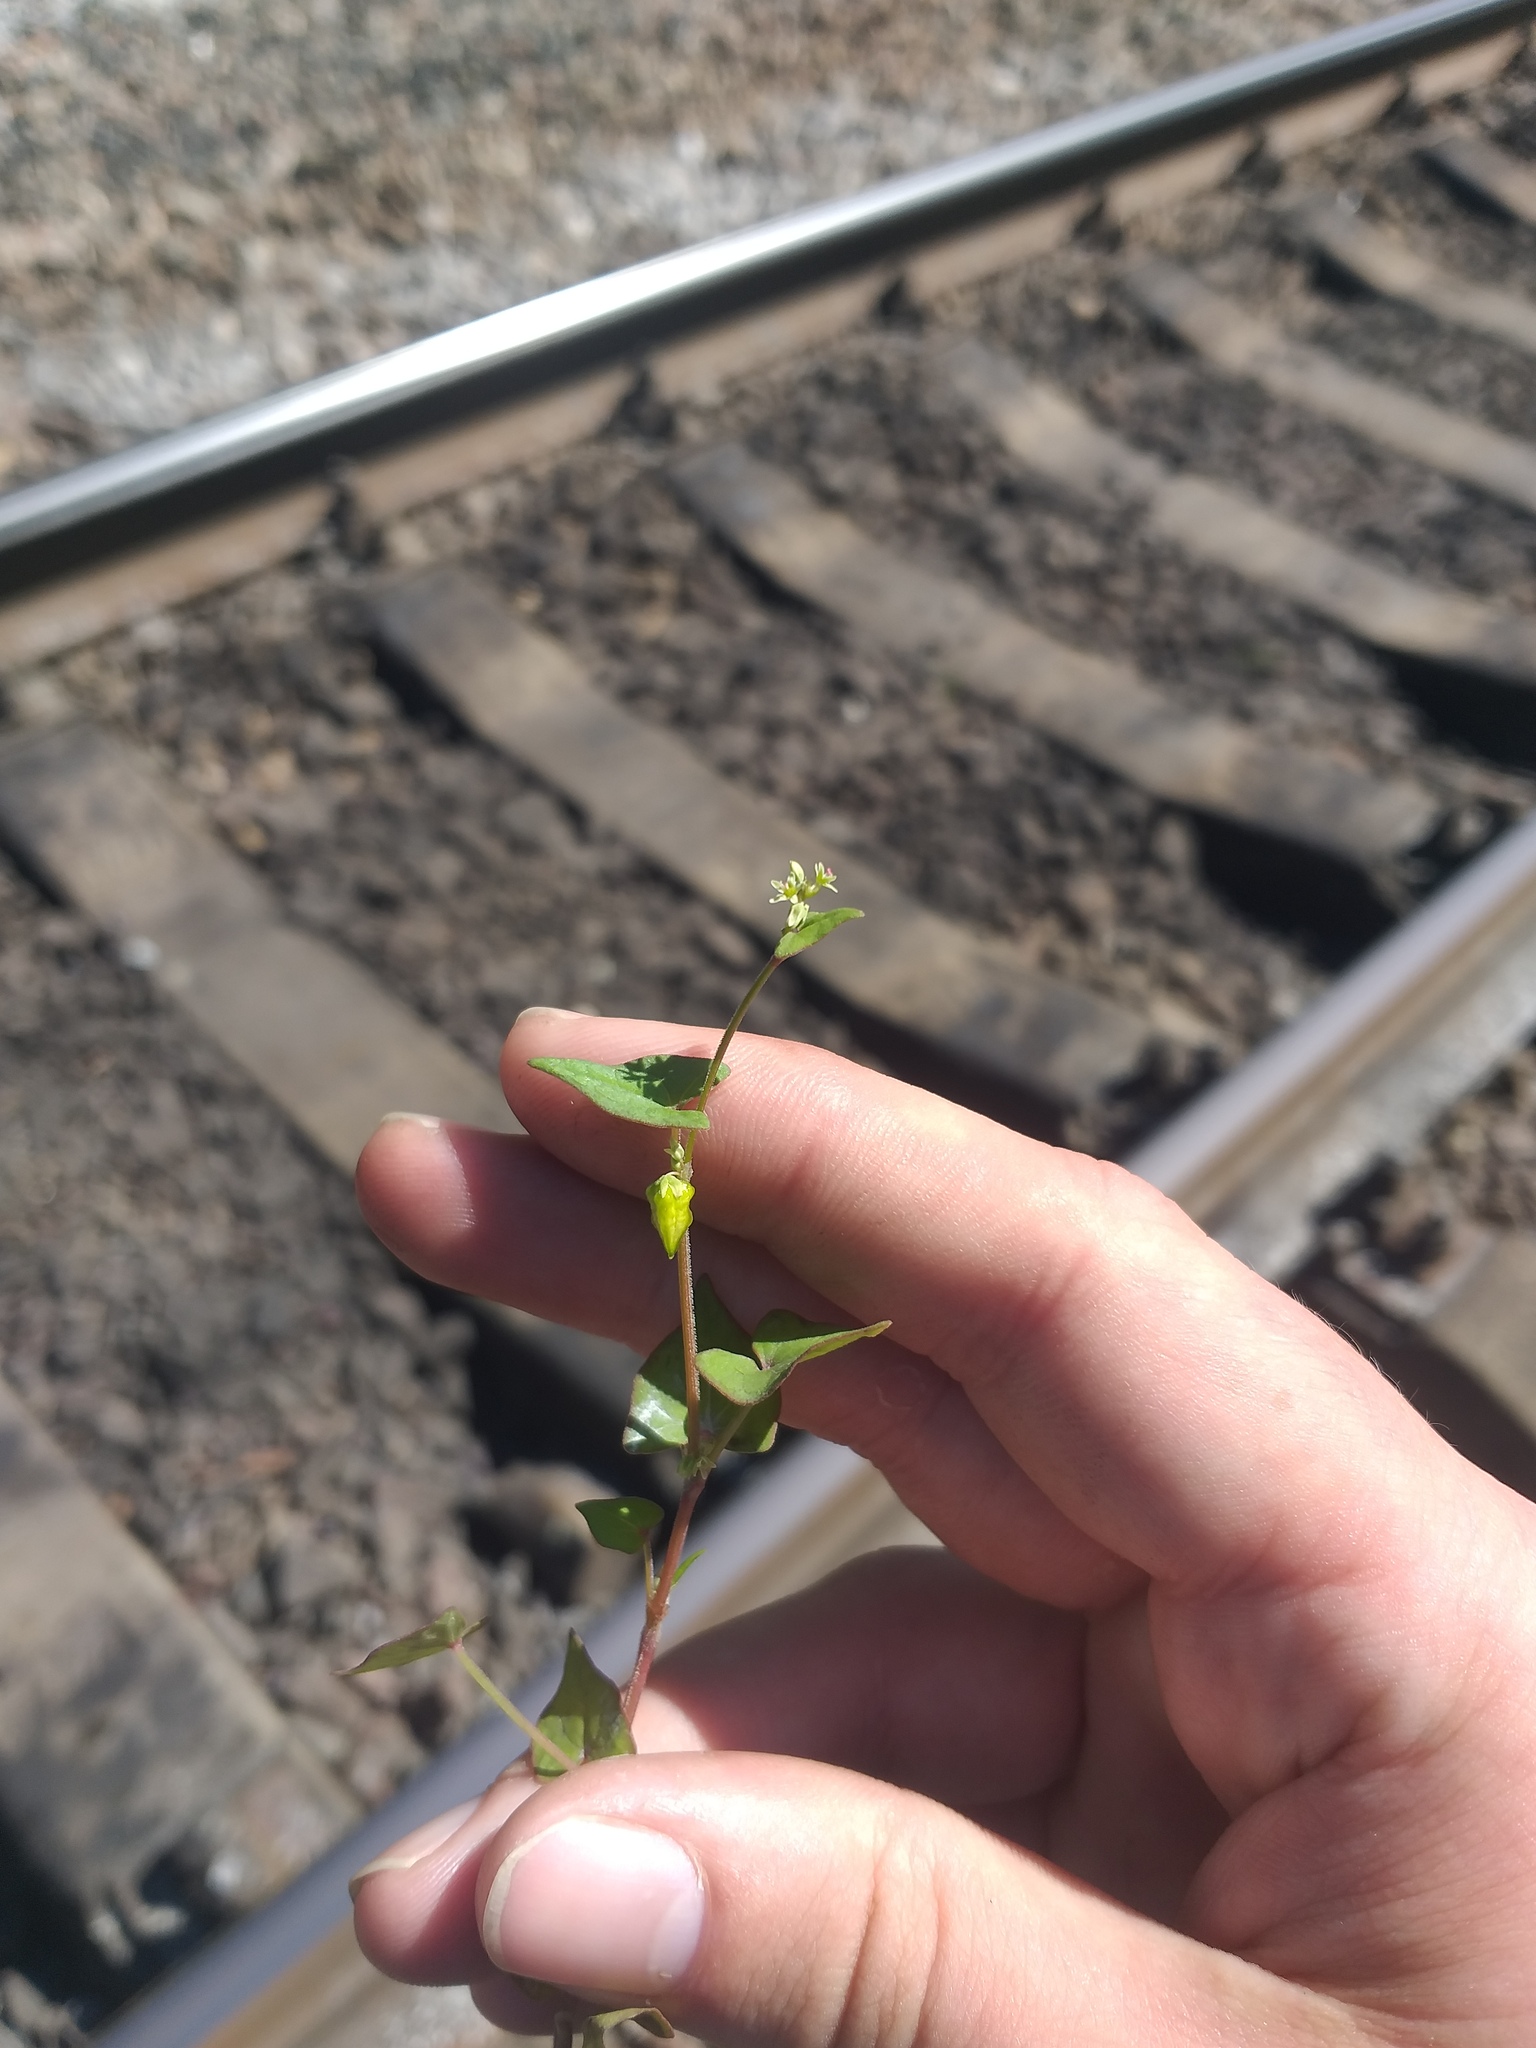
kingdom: Plantae
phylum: Tracheophyta
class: Magnoliopsida
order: Caryophyllales
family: Polygonaceae
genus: Fagopyrum
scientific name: Fagopyrum tataricum
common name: Green buckwheat
